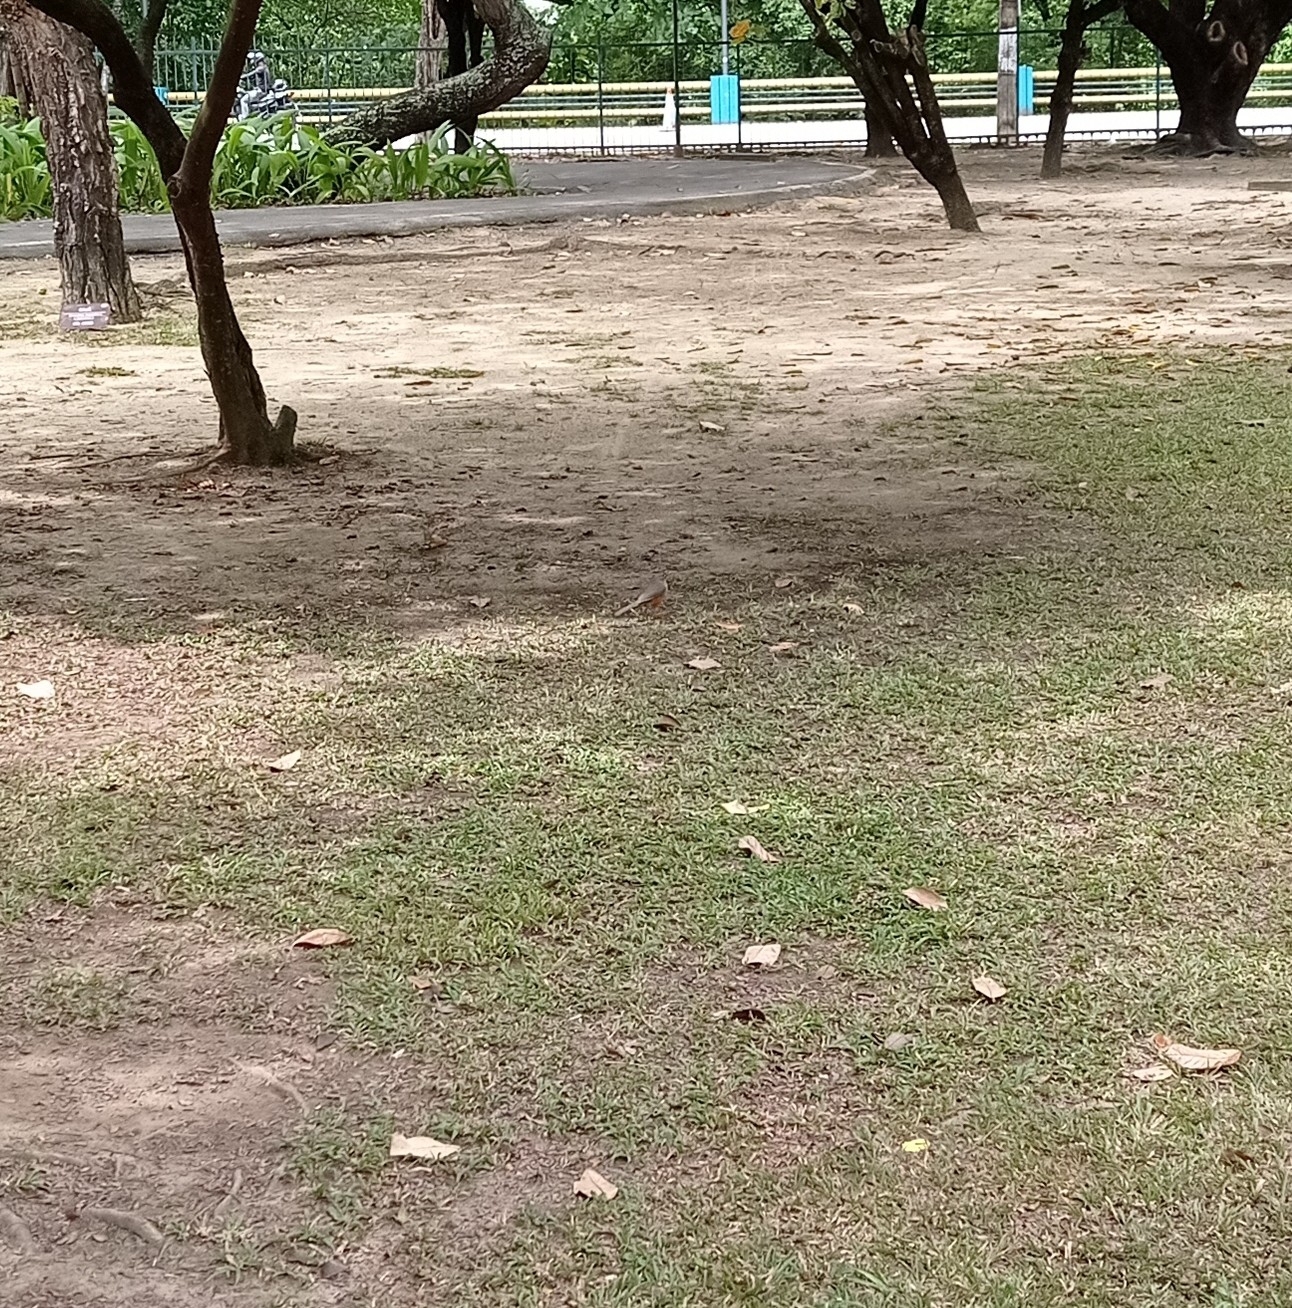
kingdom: Animalia
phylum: Chordata
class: Aves
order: Passeriformes
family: Turdidae
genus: Turdus
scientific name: Turdus rufiventris
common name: Rufous-bellied thrush
